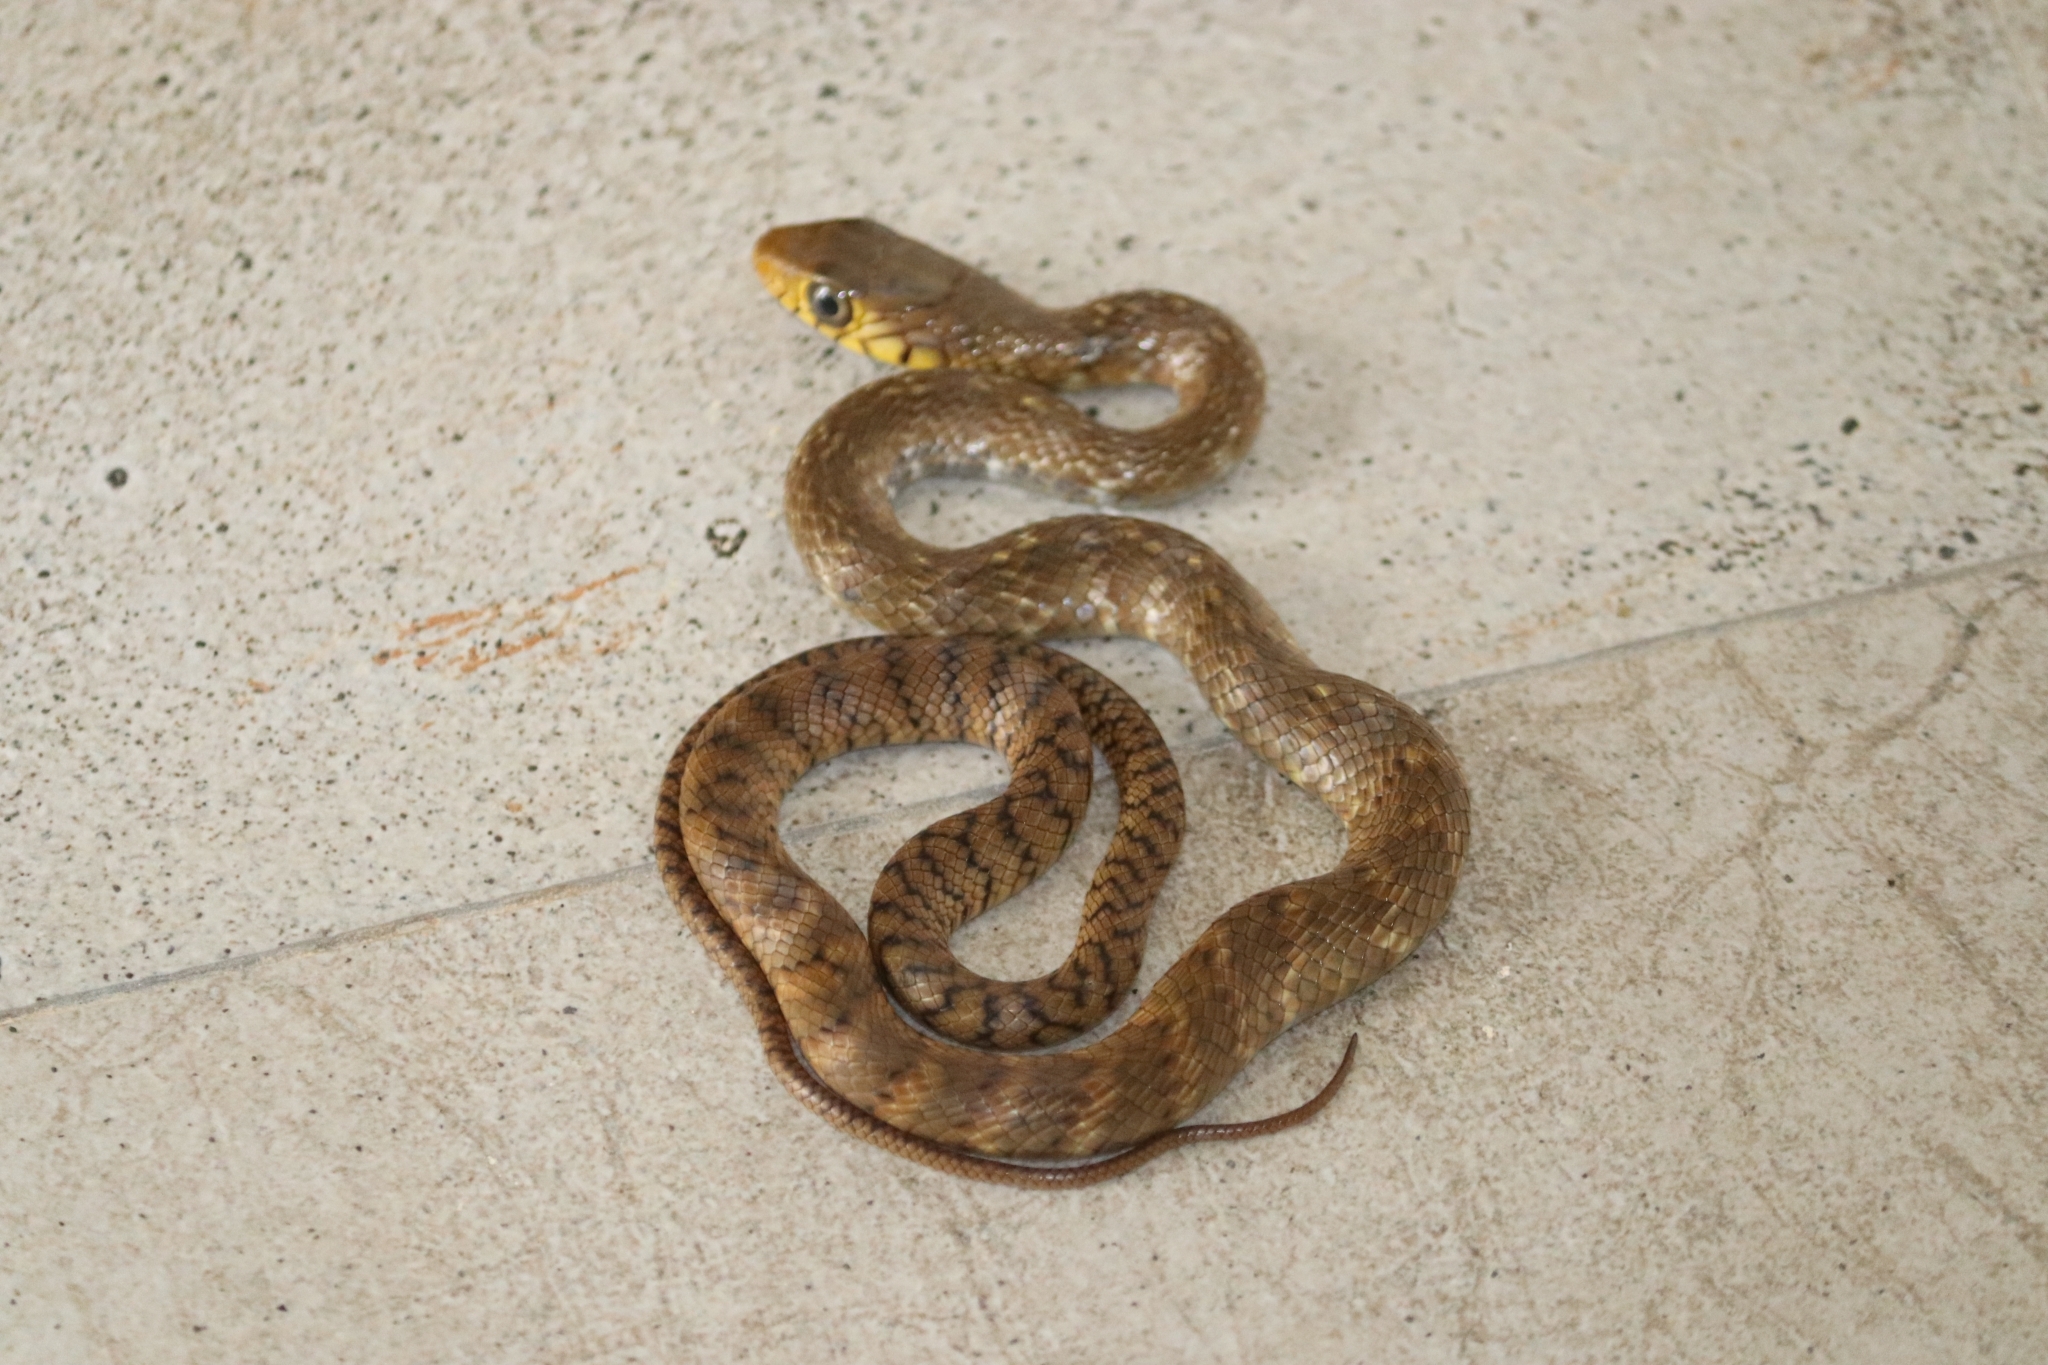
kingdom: Animalia
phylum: Chordata
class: Squamata
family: Colubridae
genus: Ptyas
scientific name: Ptyas mucosa
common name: Oriental ratsnake
